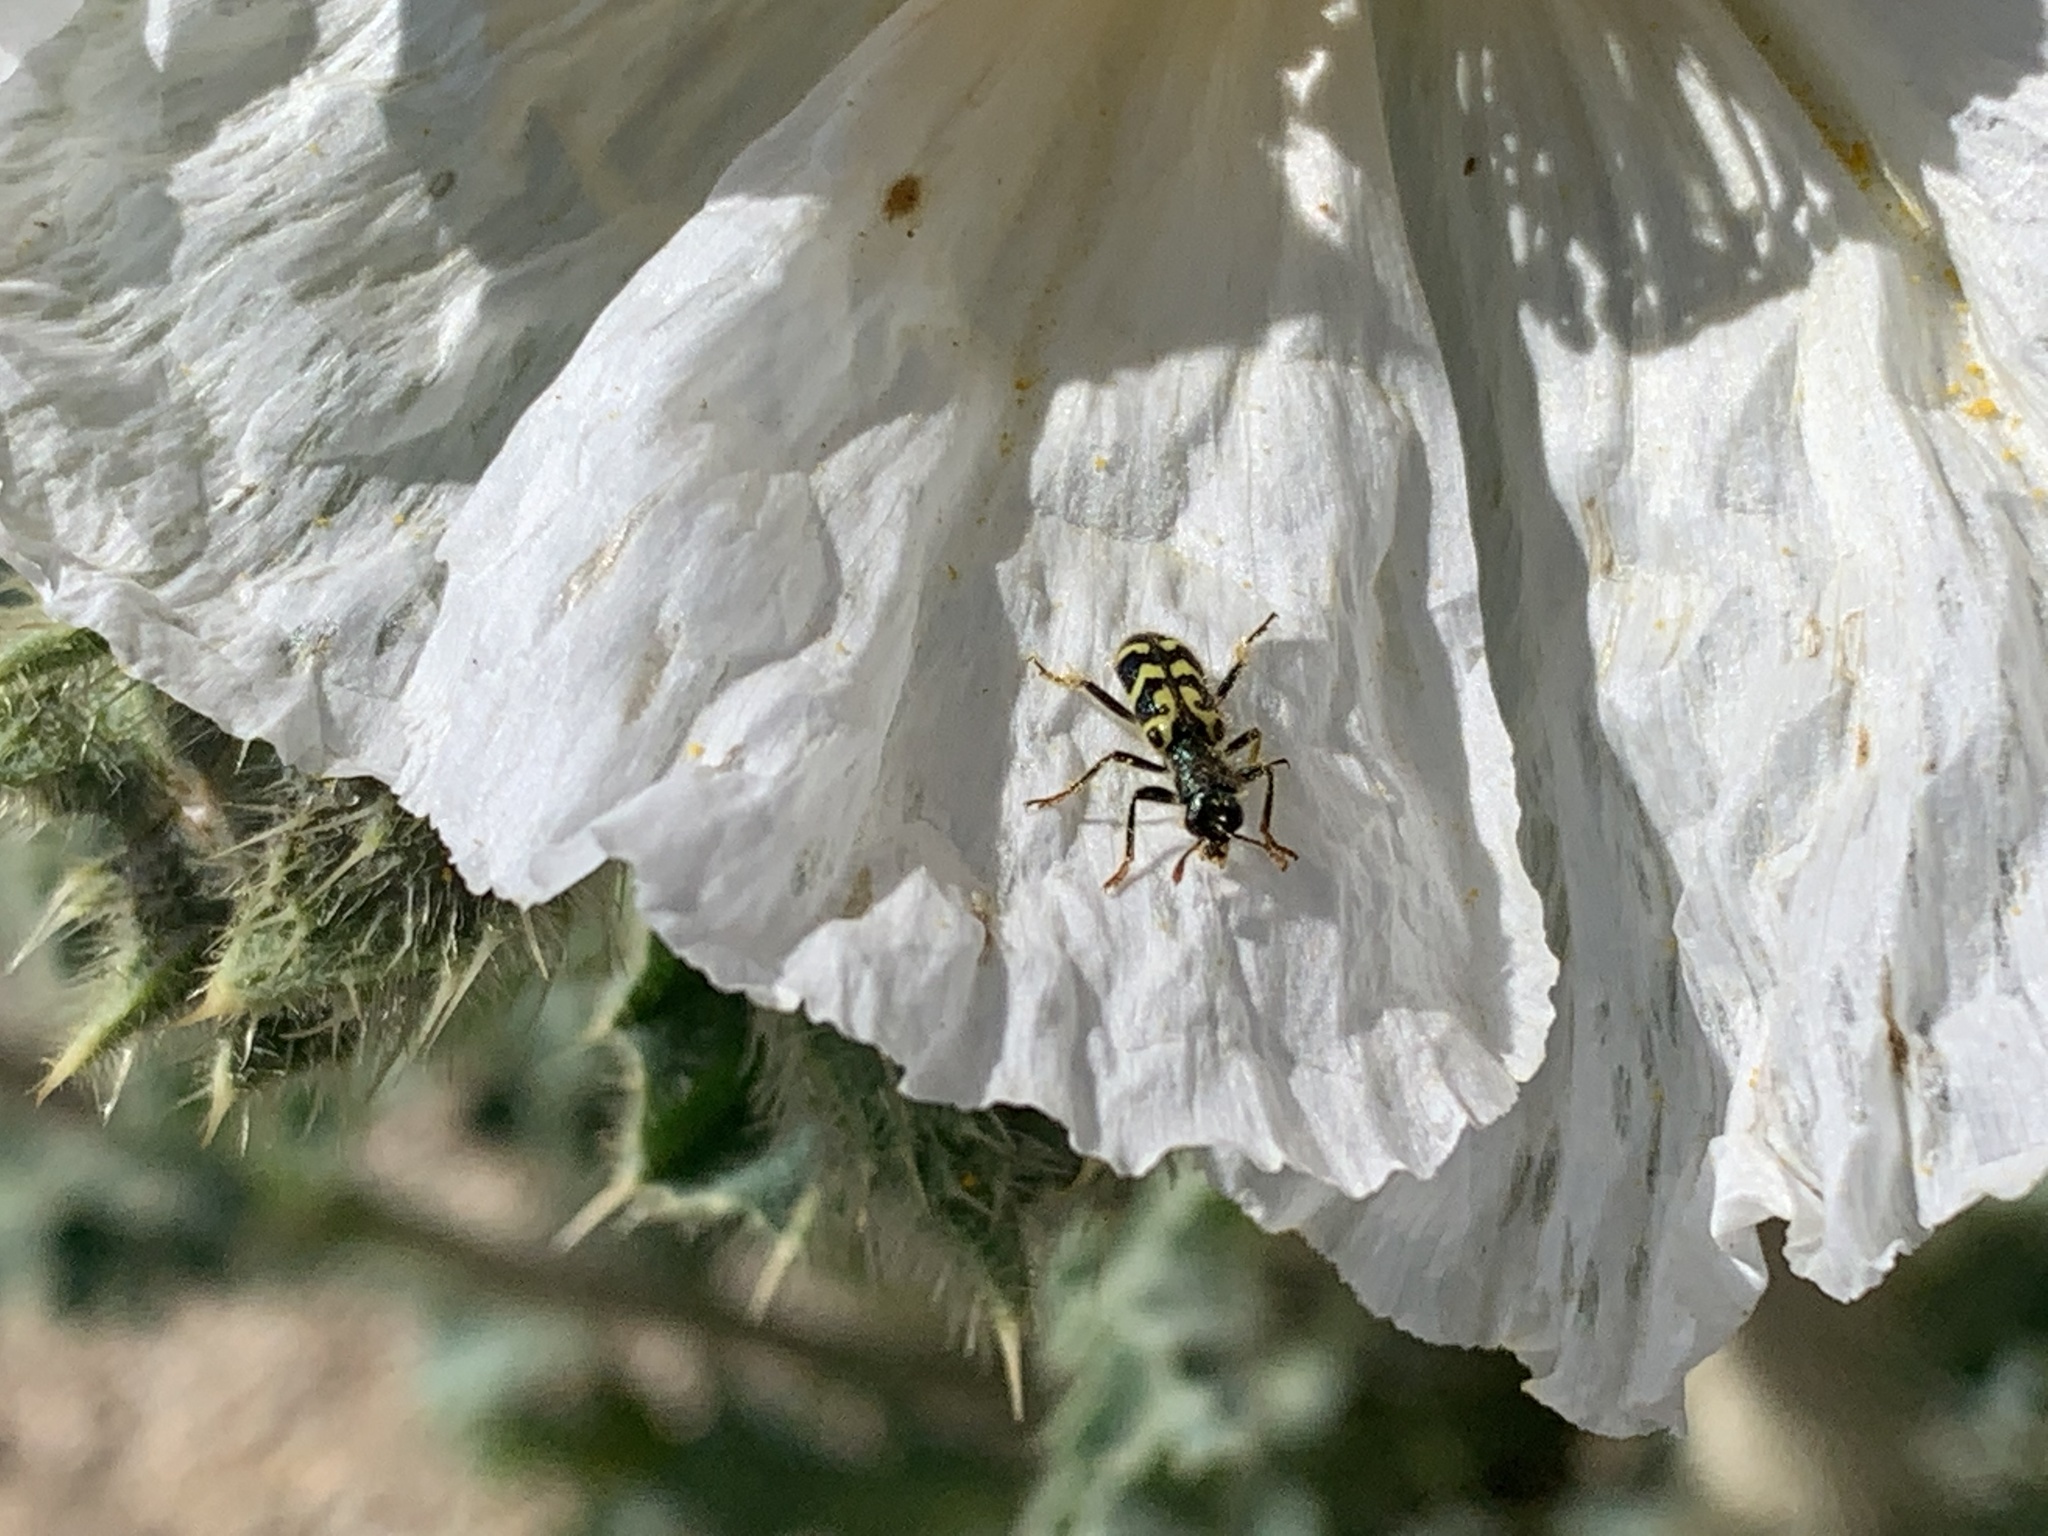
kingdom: Animalia
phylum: Arthropoda
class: Insecta
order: Coleoptera
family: Cleridae
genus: Trichodes
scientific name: Trichodes ornatus
